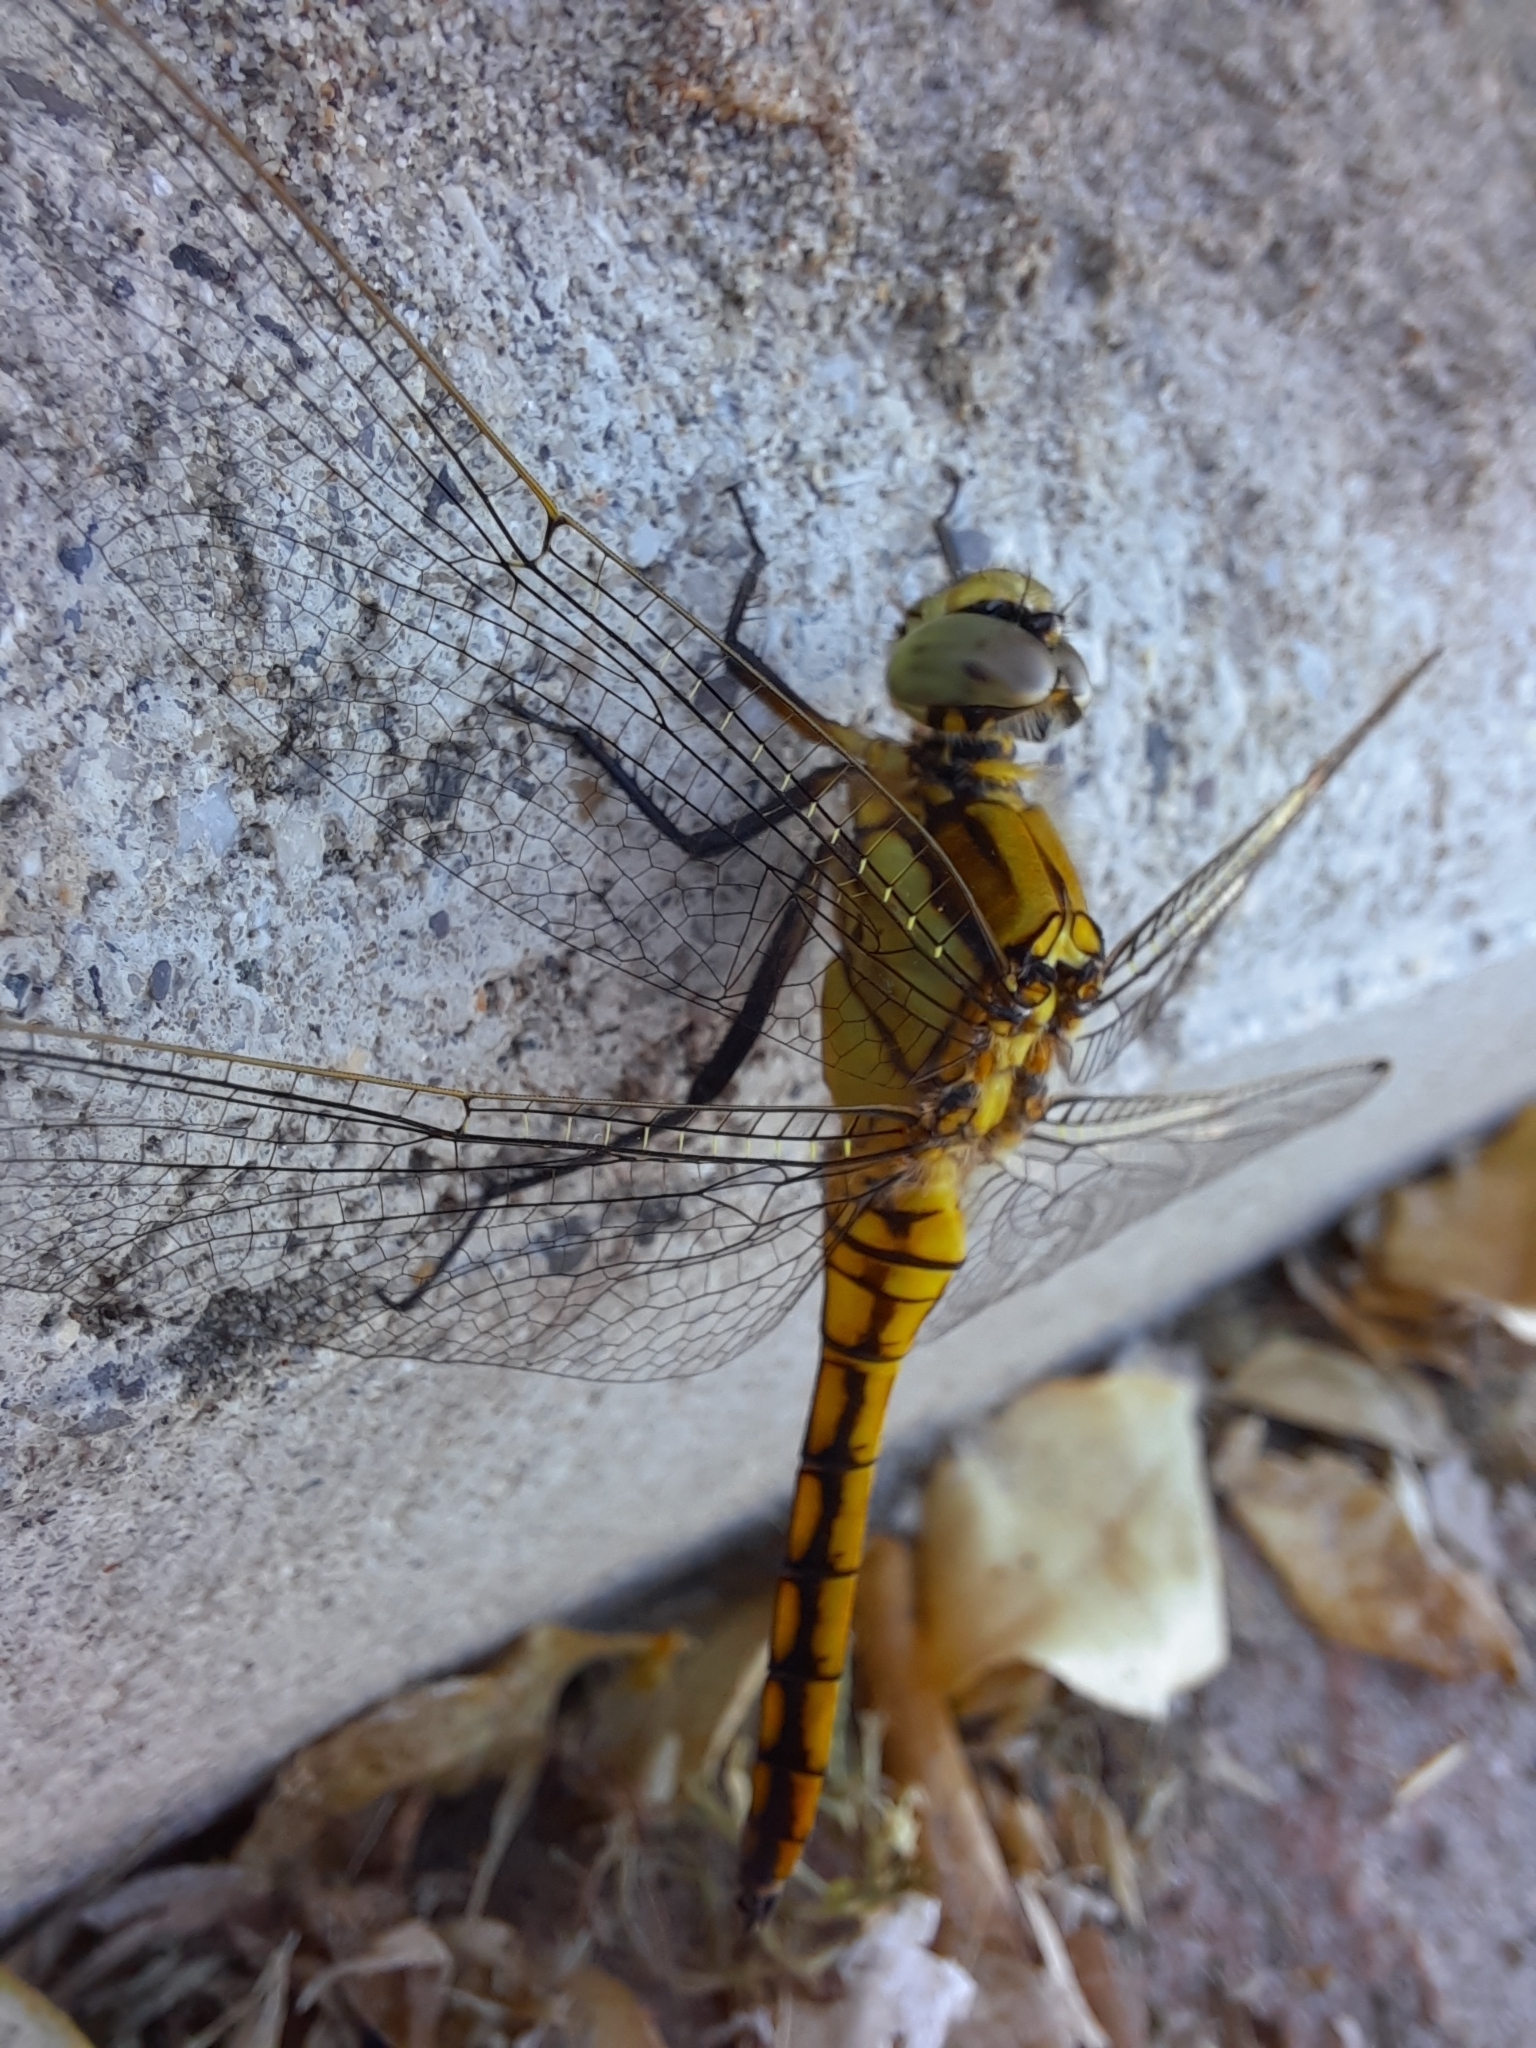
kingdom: Animalia
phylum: Arthropoda
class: Insecta
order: Odonata
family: Libellulidae
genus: Orthetrum
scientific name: Orthetrum cancellatum
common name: Black-tailed skimmer
